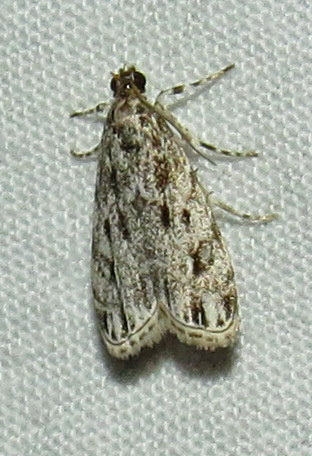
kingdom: Animalia
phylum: Arthropoda
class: Insecta
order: Lepidoptera
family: Crambidae
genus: Eudonia
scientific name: Eudonia strigalis
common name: Striped eudonia moth
